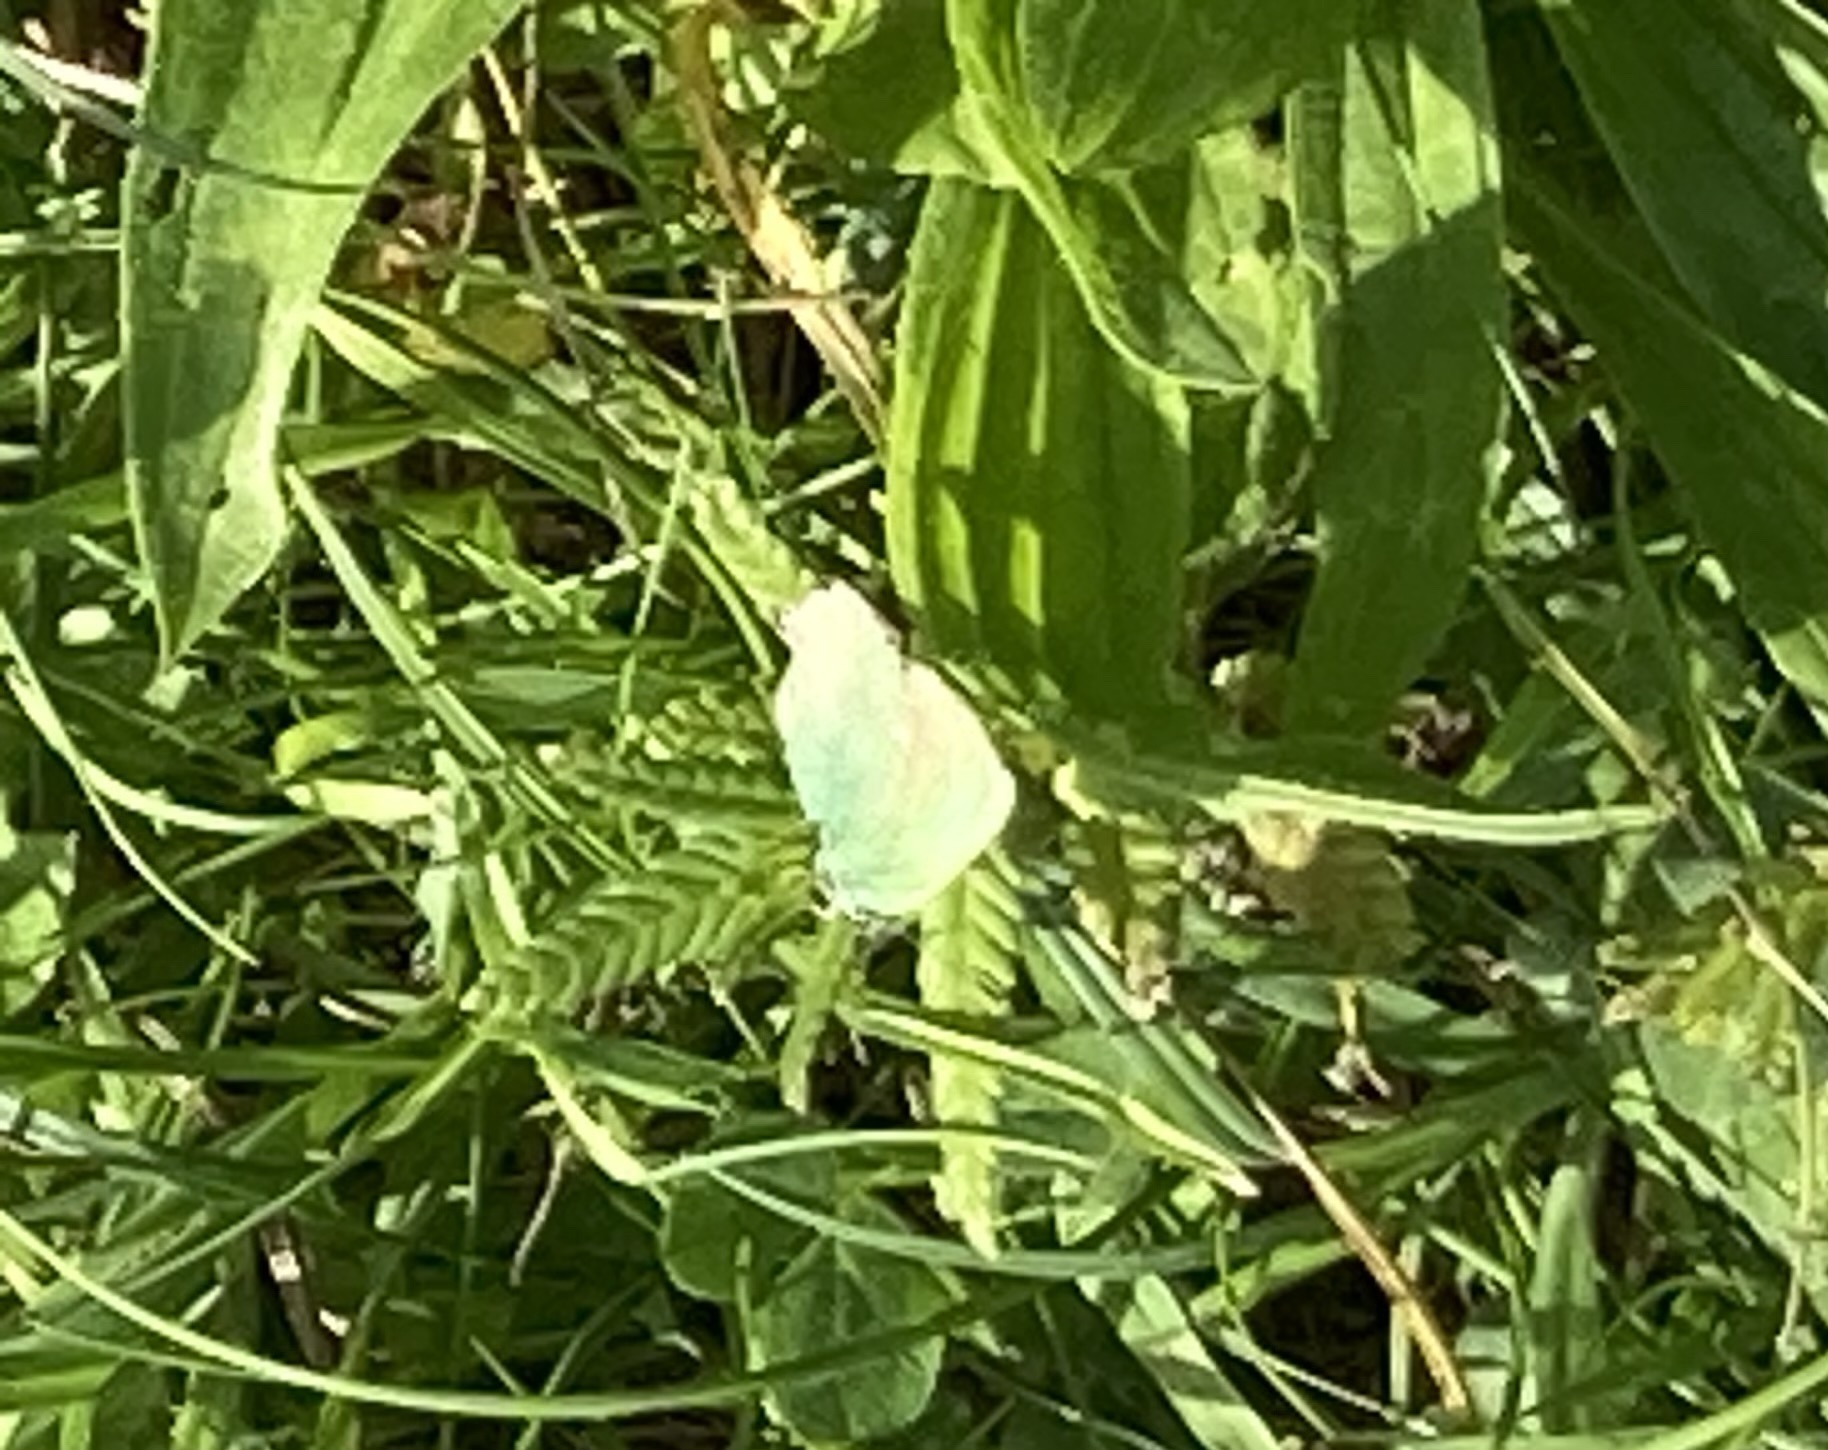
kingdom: Animalia
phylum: Arthropoda
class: Insecta
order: Lepidoptera
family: Lycaenidae
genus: Callophrys
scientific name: Callophrys rubi
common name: Green hairstreak
